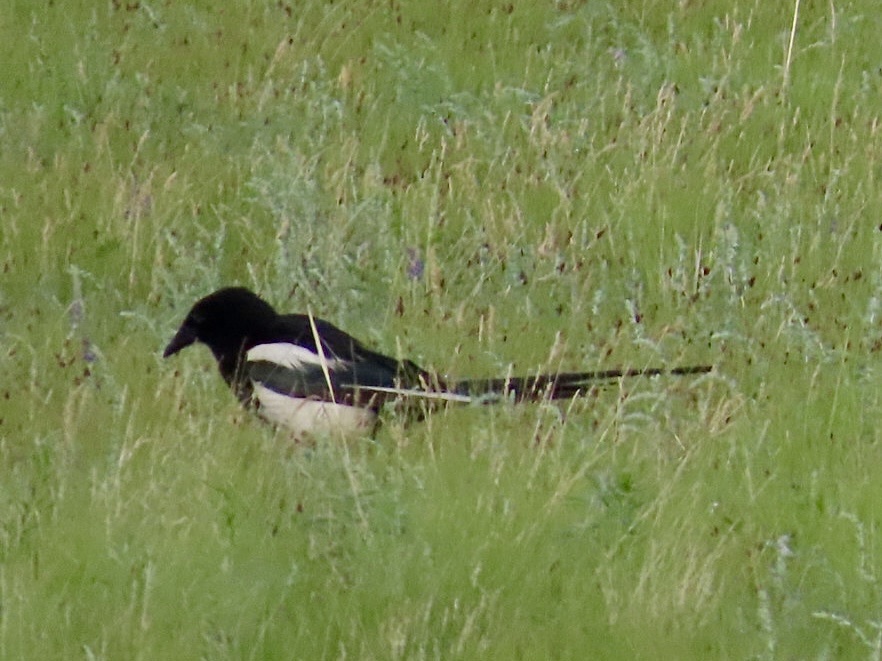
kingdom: Animalia
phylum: Chordata
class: Aves
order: Passeriformes
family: Corvidae
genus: Pica
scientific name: Pica pica
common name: Eurasian magpie
